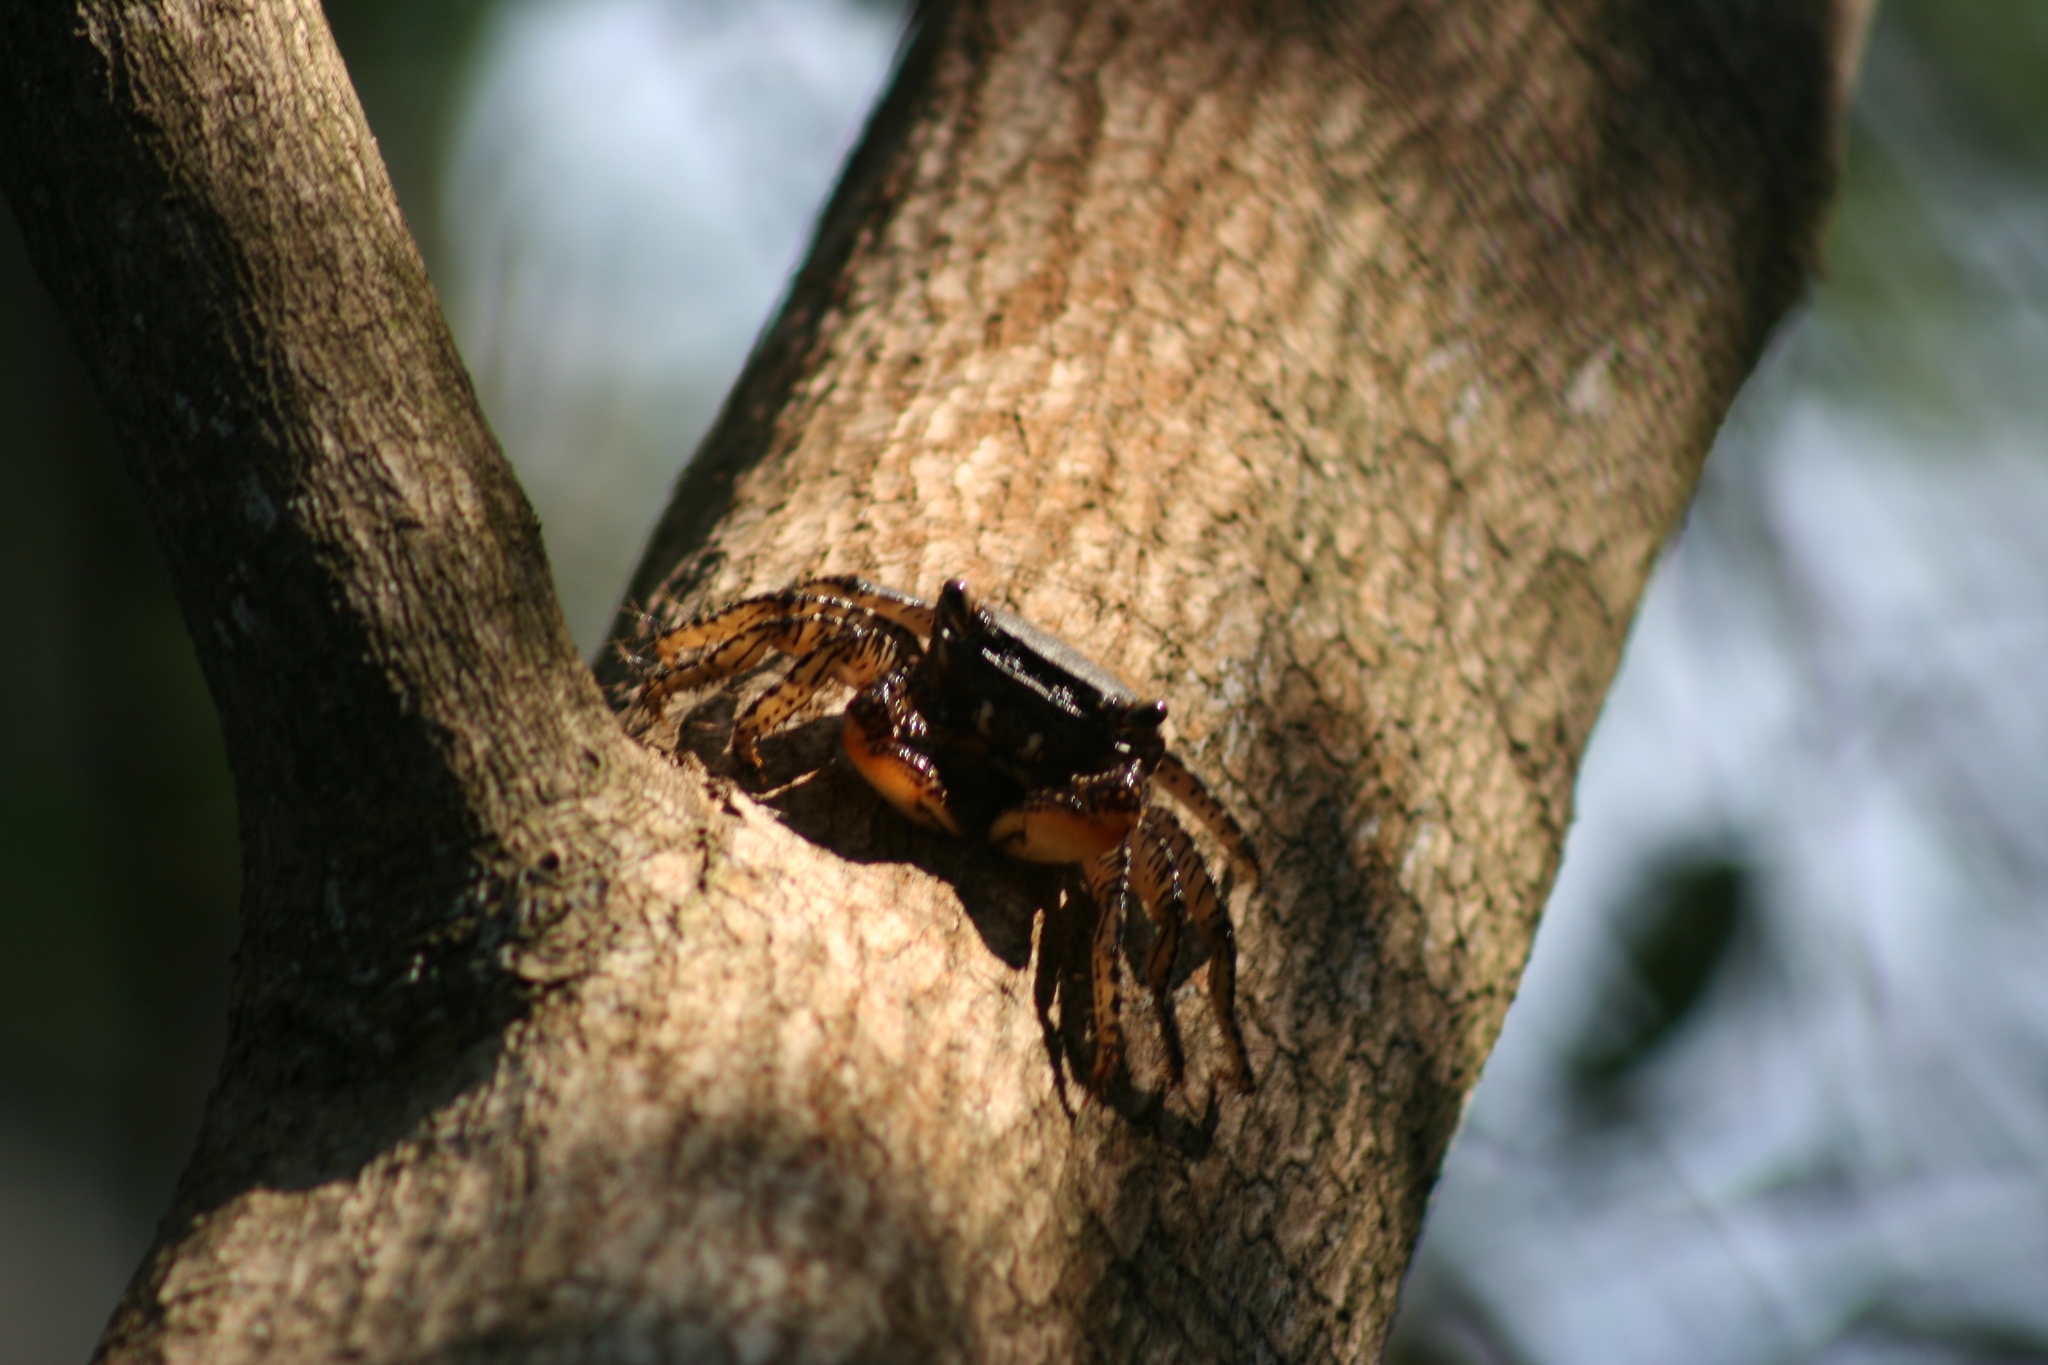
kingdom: Animalia
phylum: Arthropoda
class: Malacostraca
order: Decapoda
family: Grapsidae
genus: Goniopsis
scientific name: Goniopsis pulchra
